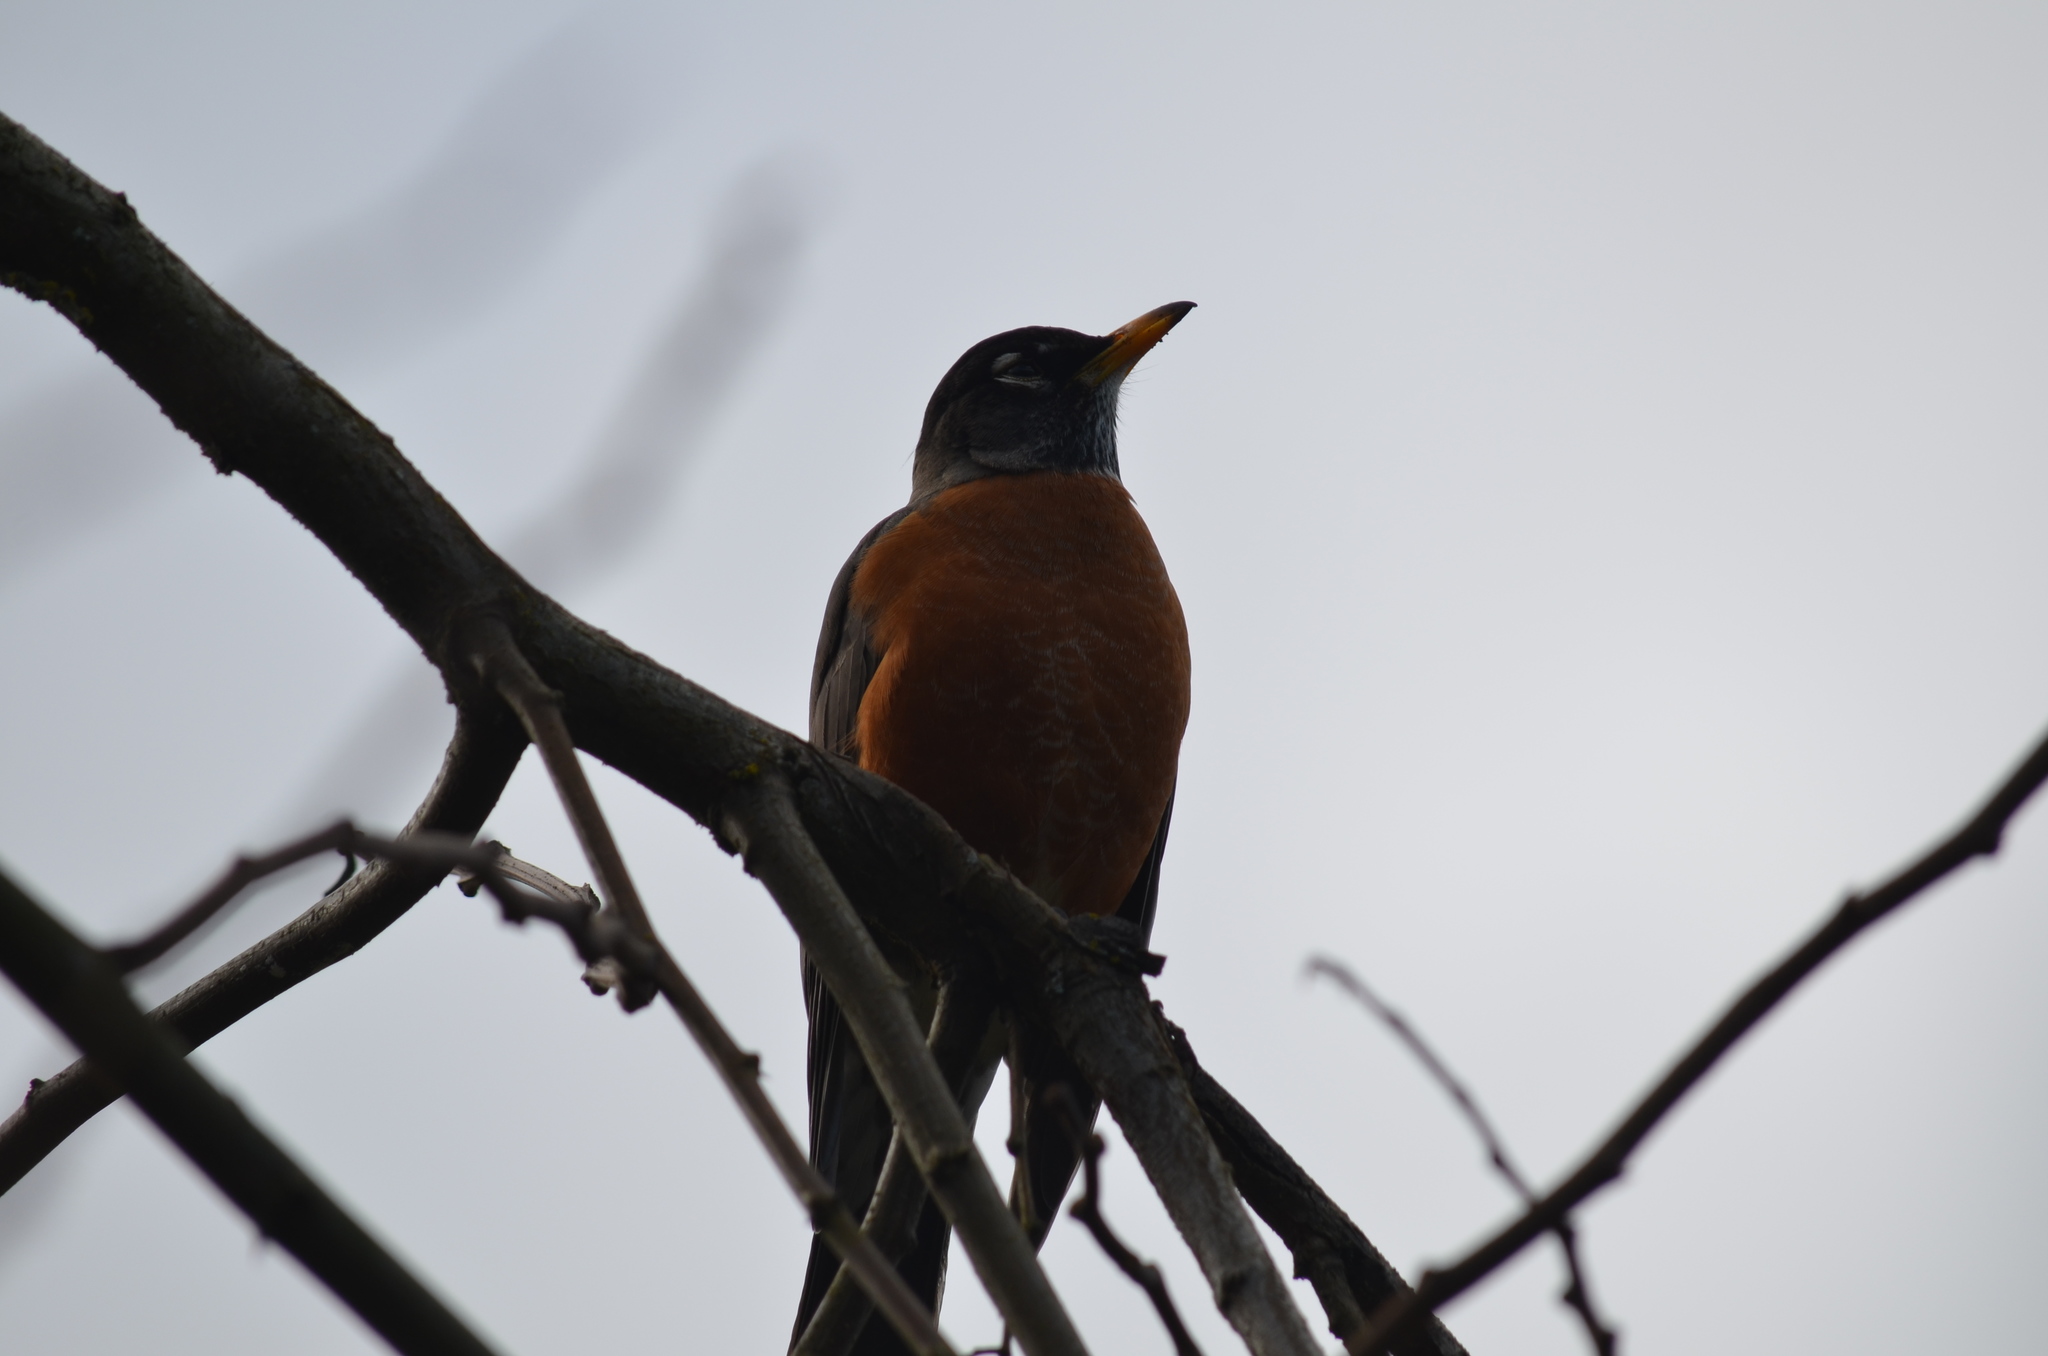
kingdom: Animalia
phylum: Chordata
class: Aves
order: Passeriformes
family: Turdidae
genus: Turdus
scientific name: Turdus migratorius
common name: American robin
